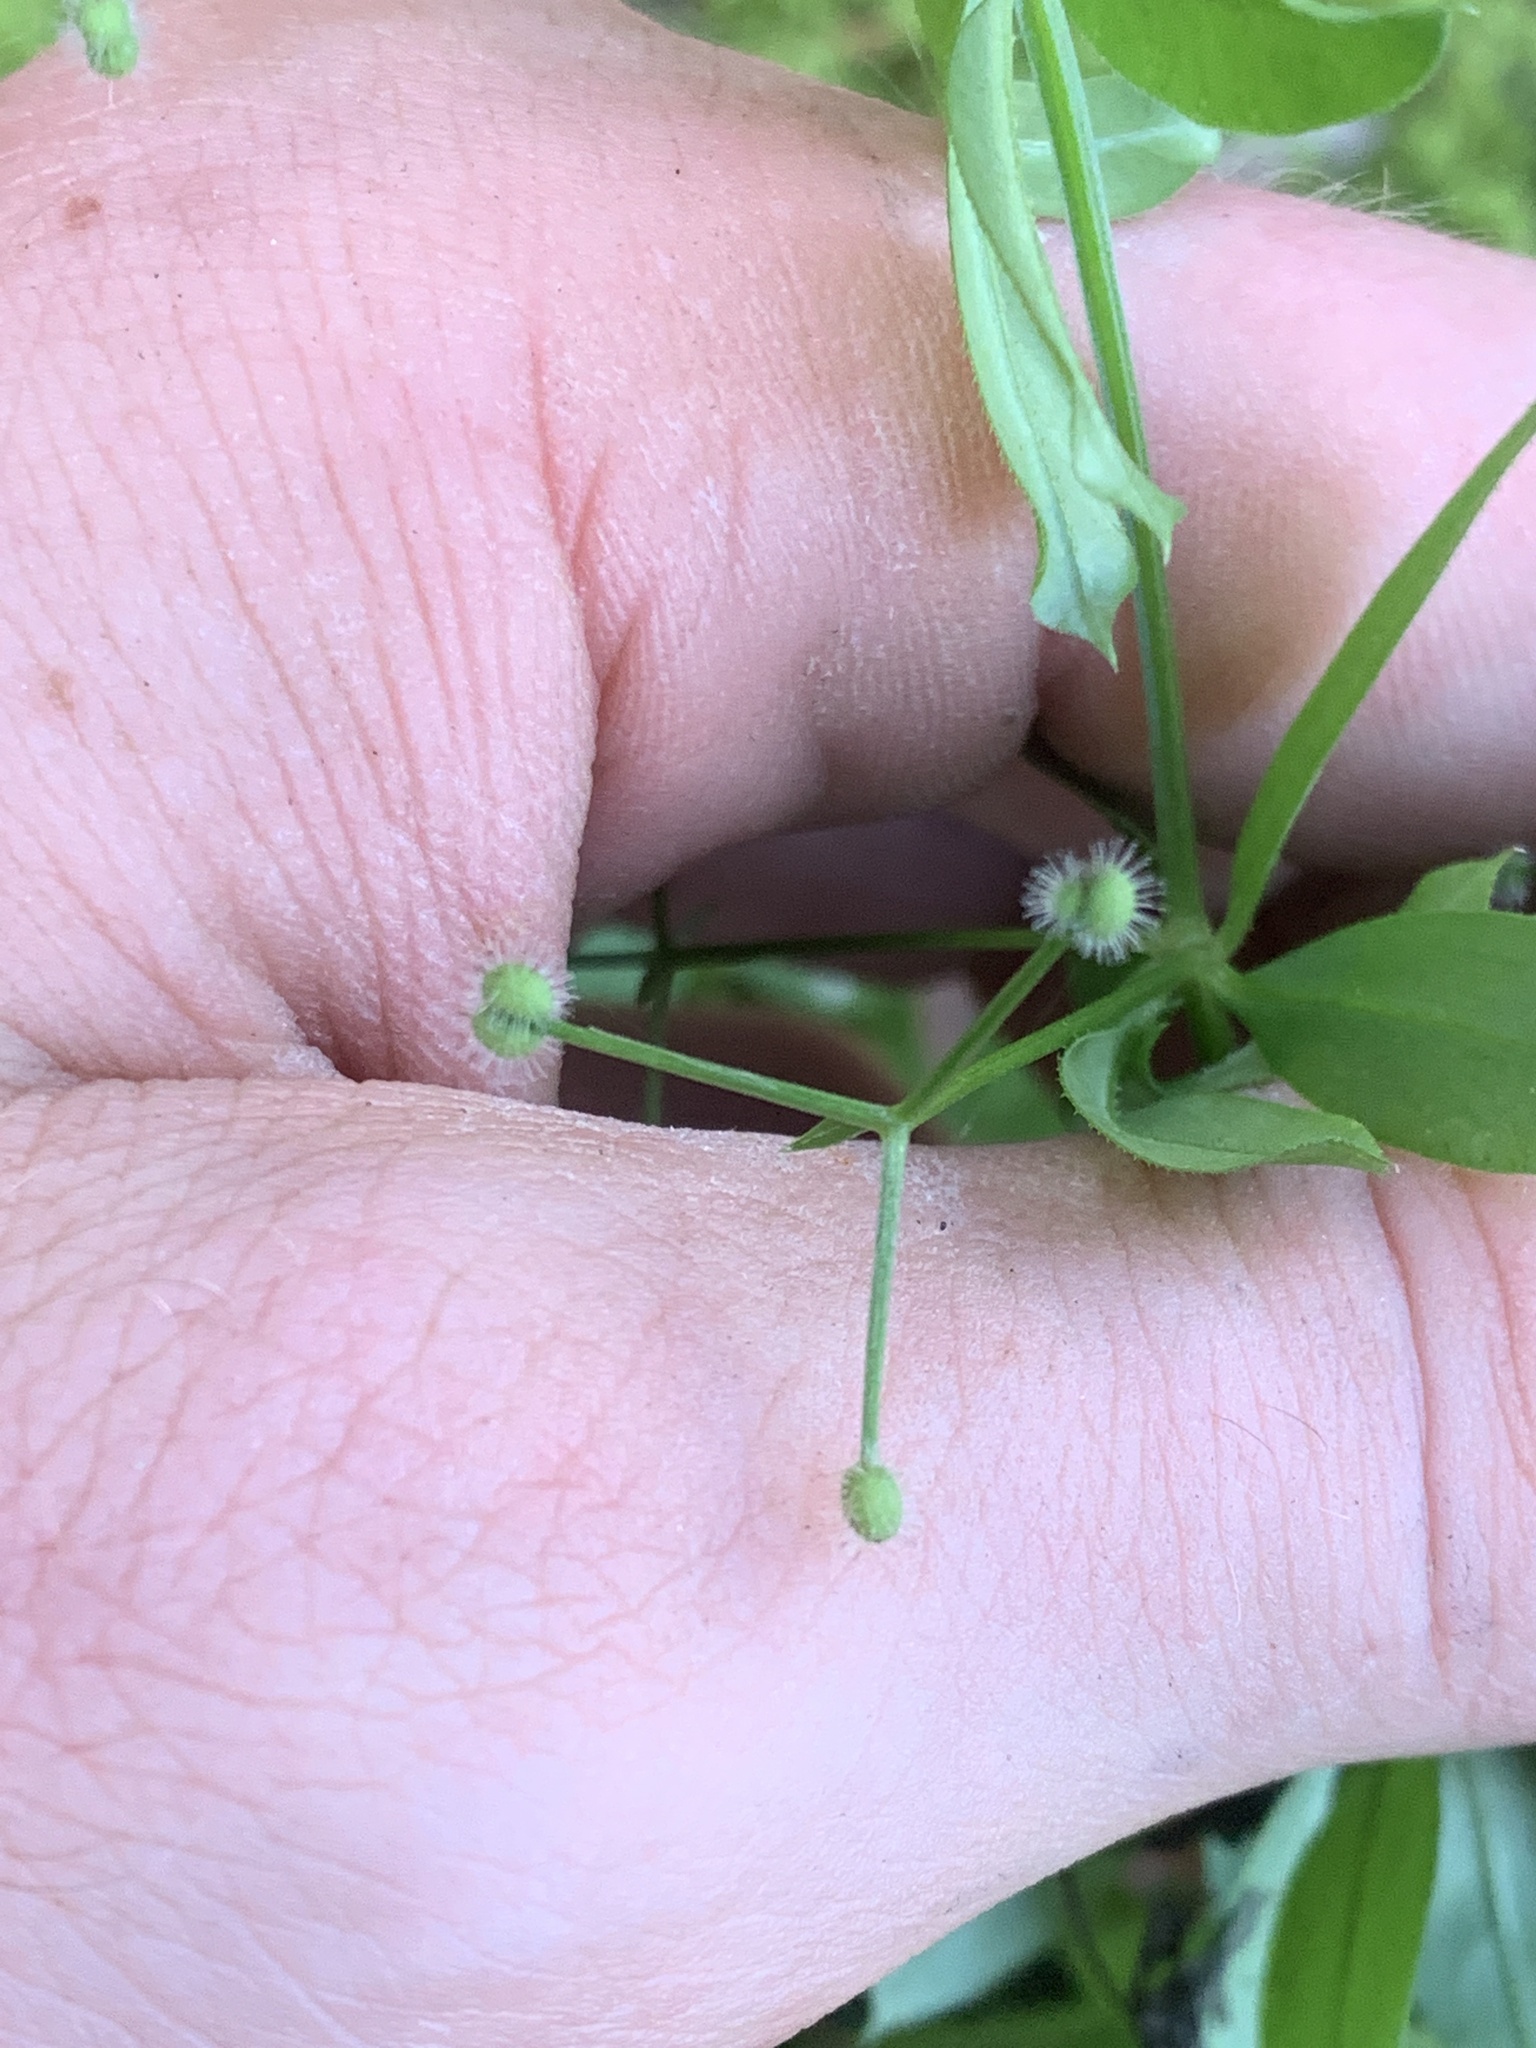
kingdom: Plantae
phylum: Tracheophyta
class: Magnoliopsida
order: Gentianales
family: Rubiaceae
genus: Galium
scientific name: Galium triflorum
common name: Fragrant bedstraw
